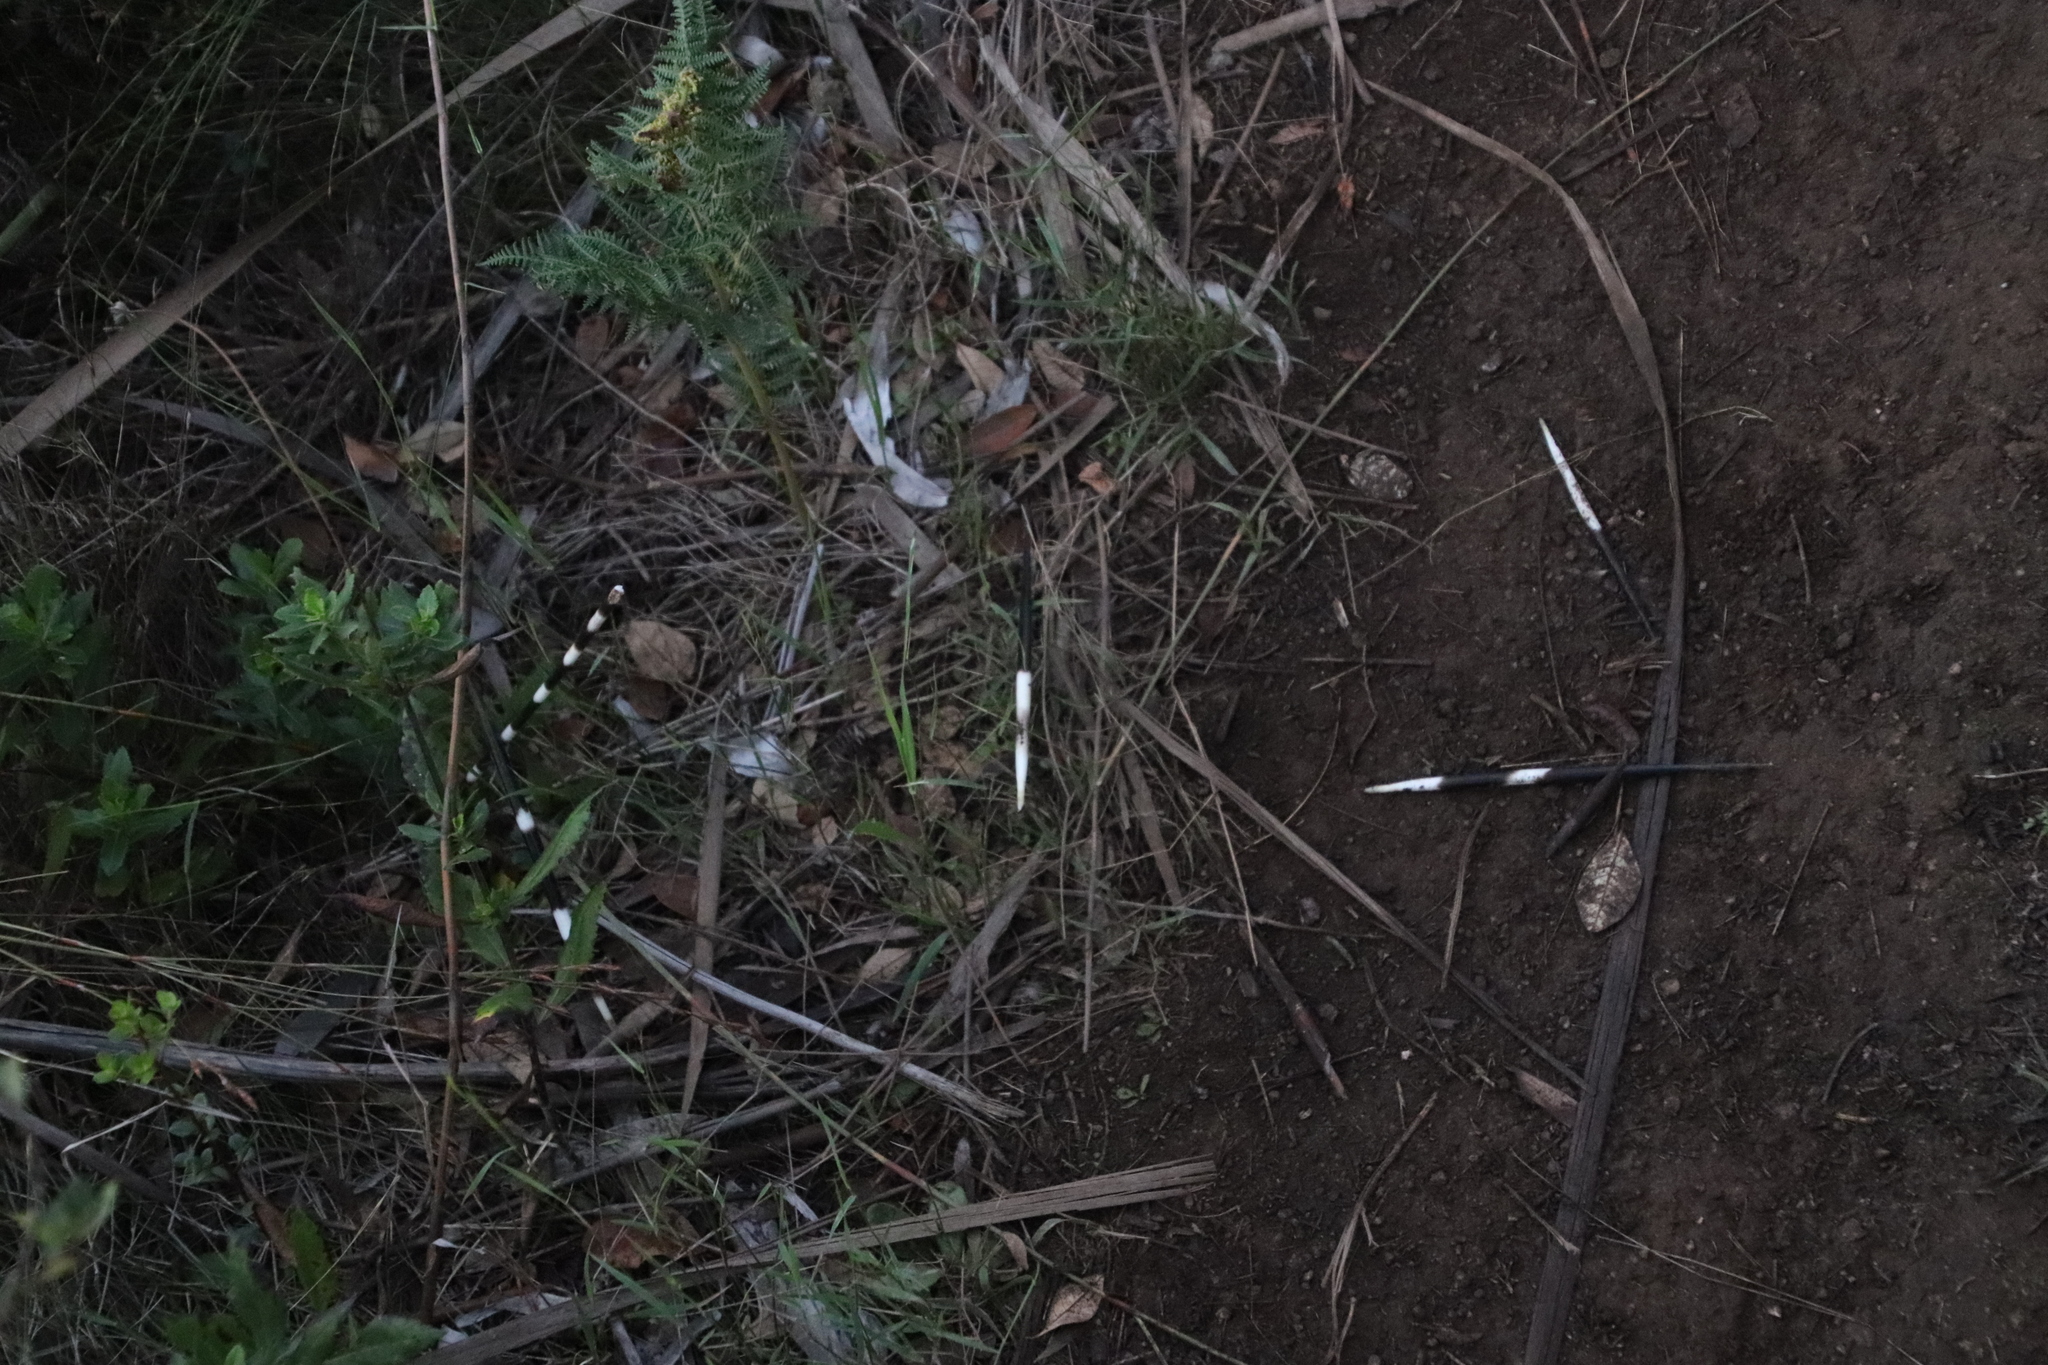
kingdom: Animalia
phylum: Chordata
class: Mammalia
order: Rodentia
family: Hystricidae
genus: Hystrix
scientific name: Hystrix africaeaustralis
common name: Cape porcupine
